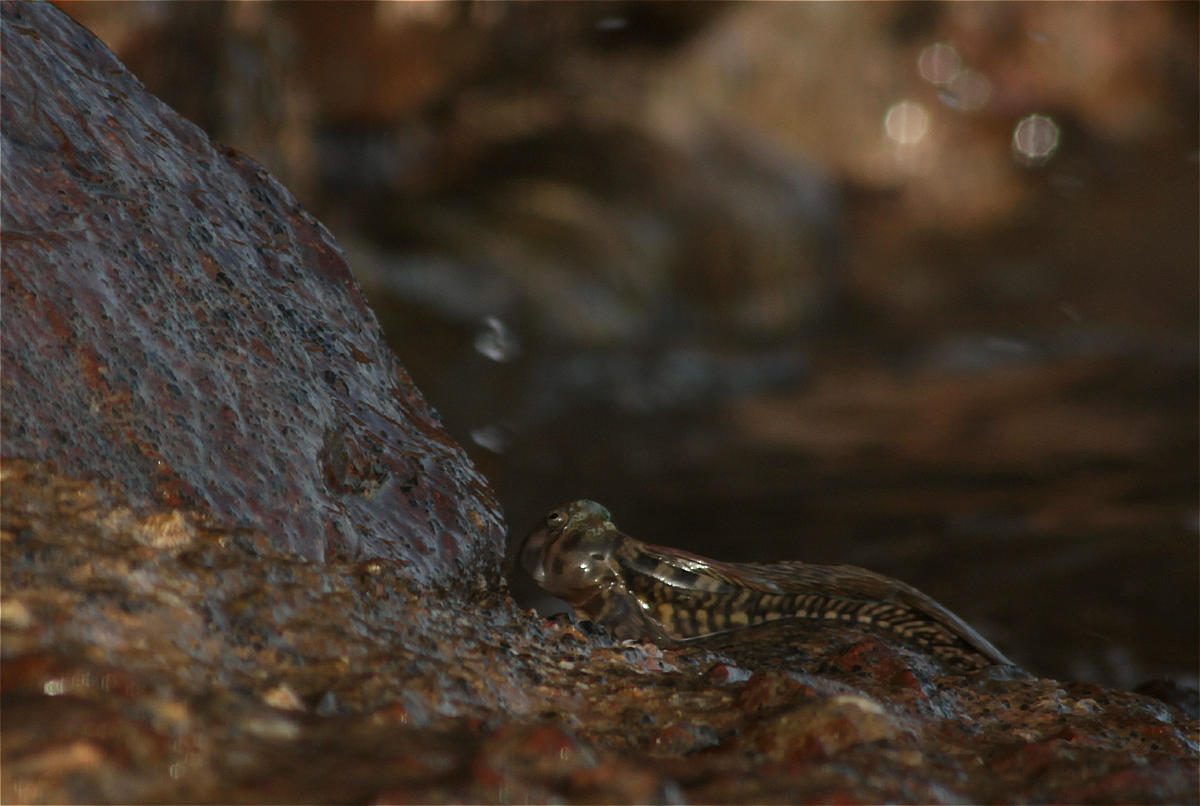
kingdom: Animalia
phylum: Chordata
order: Perciformes
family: Blenniidae
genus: Alticus
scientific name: Alticus magnusi
